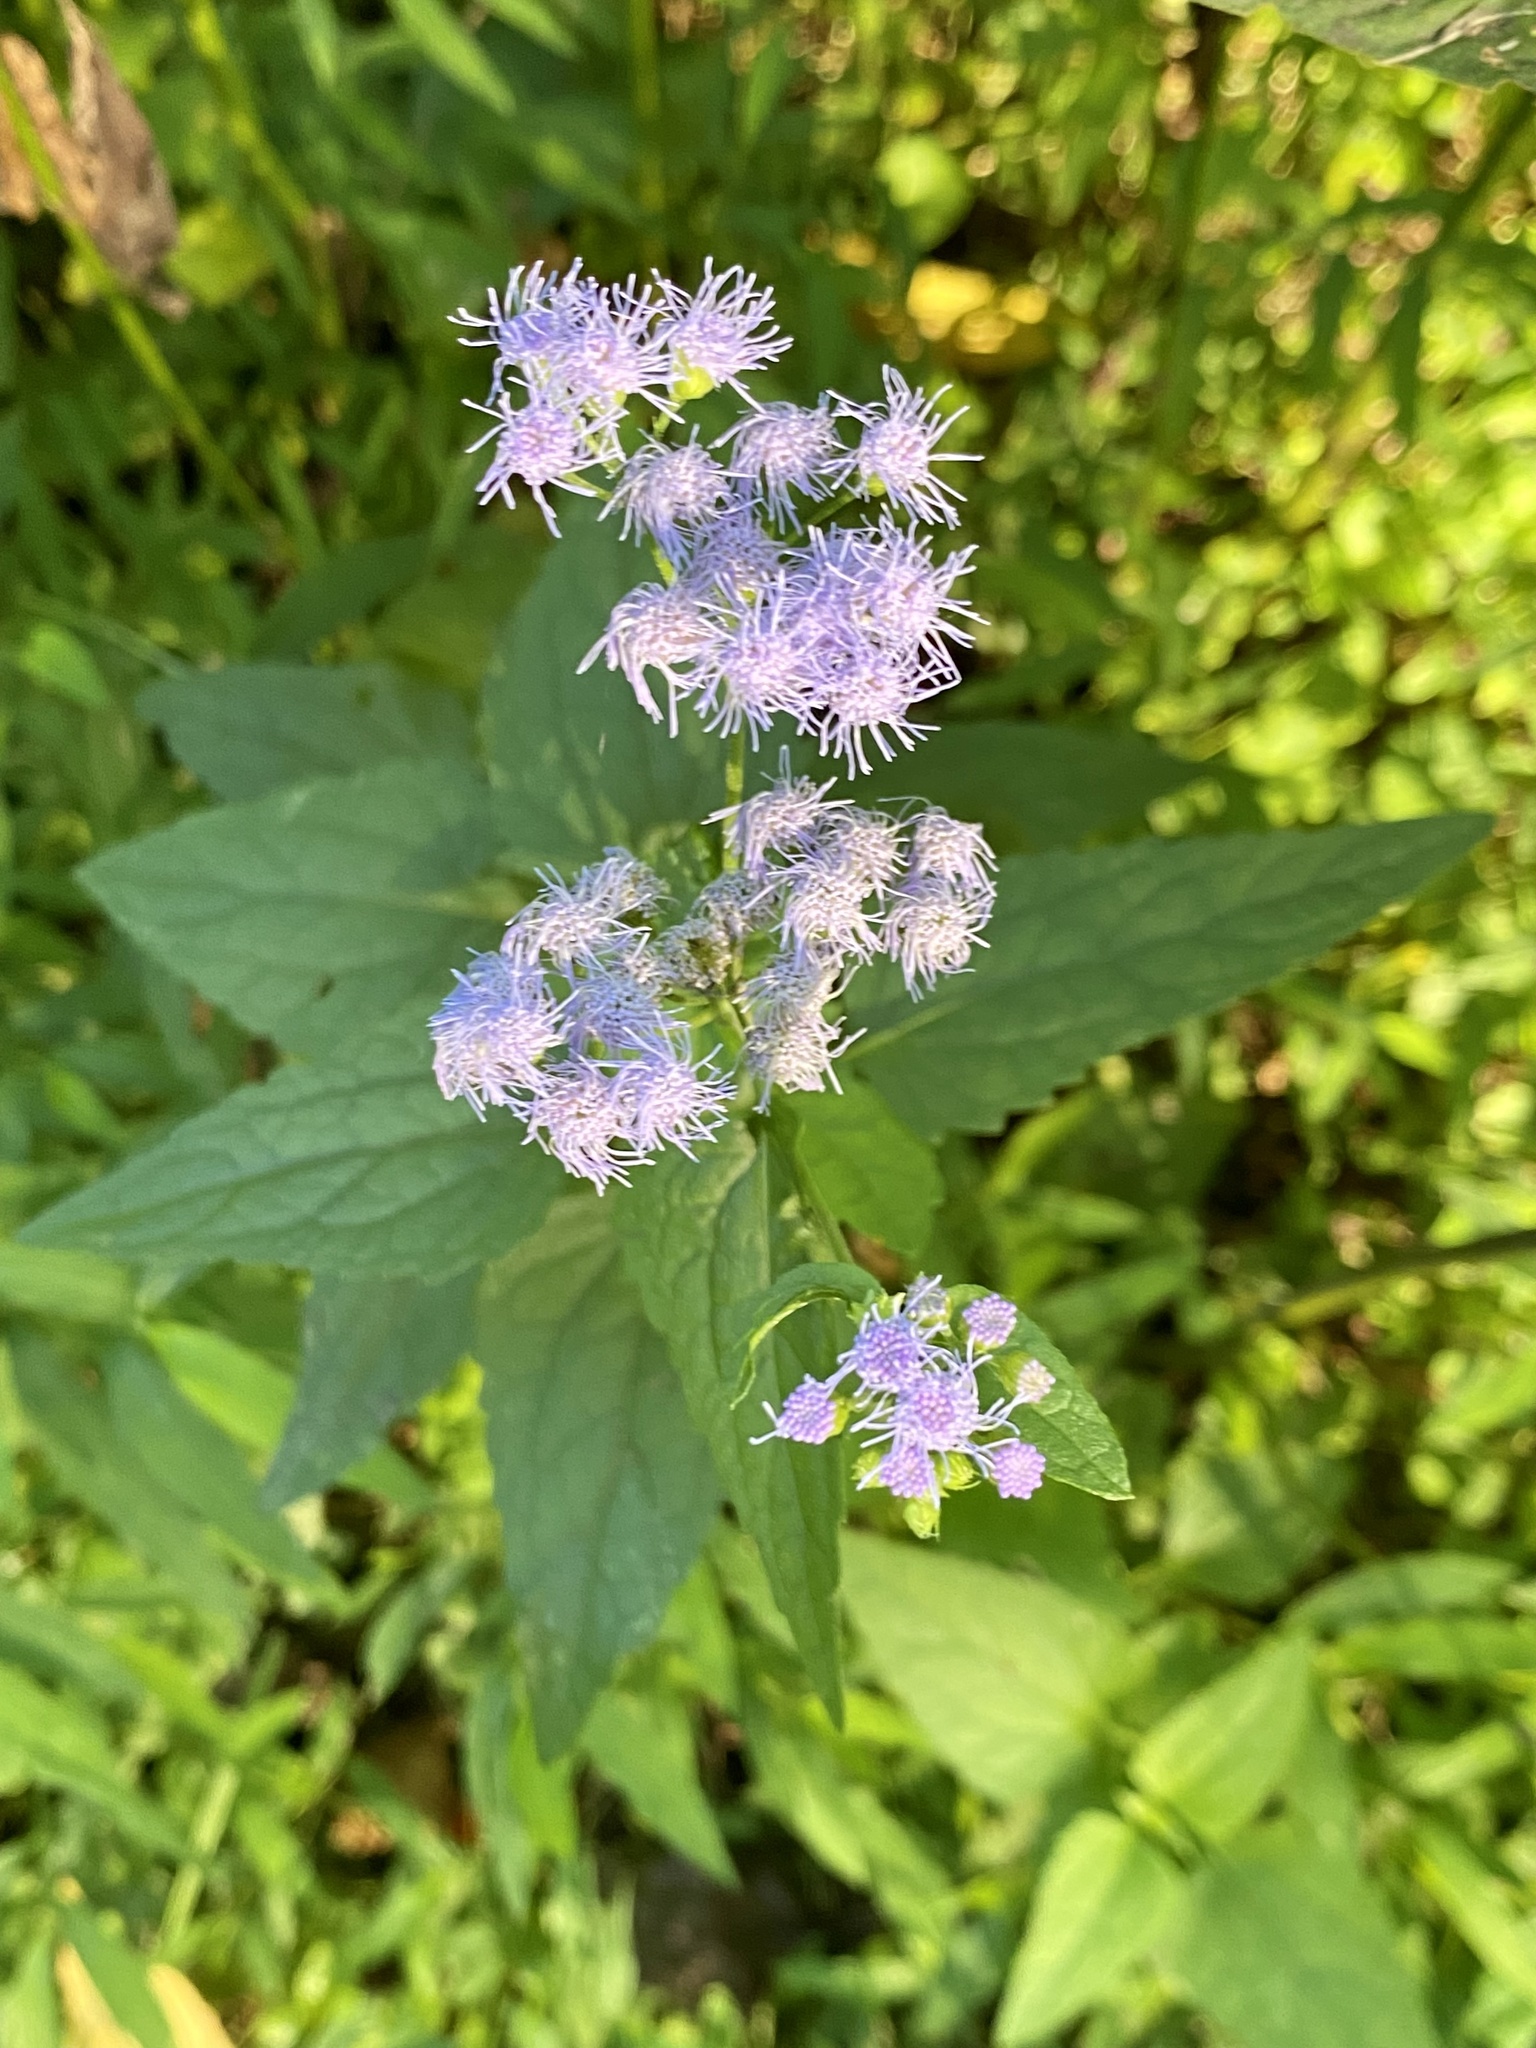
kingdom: Plantae
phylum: Tracheophyta
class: Magnoliopsida
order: Asterales
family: Asteraceae
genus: Conoclinium
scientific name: Conoclinium coelestinum
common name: Blue mistflower
